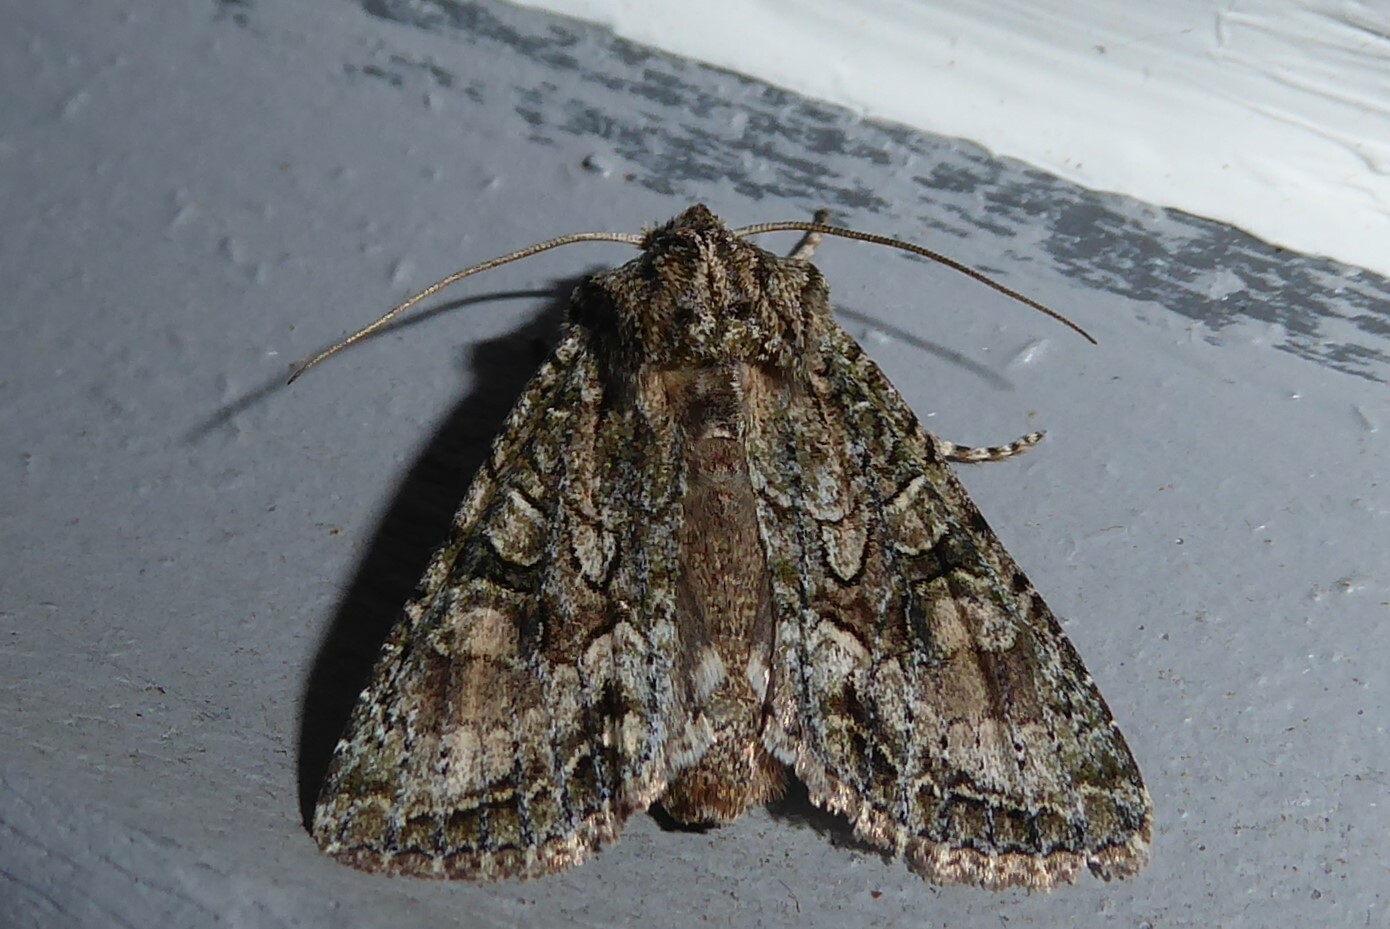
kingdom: Animalia
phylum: Arthropoda
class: Insecta
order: Lepidoptera
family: Noctuidae
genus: Ichneutica
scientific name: Ichneutica mutans
